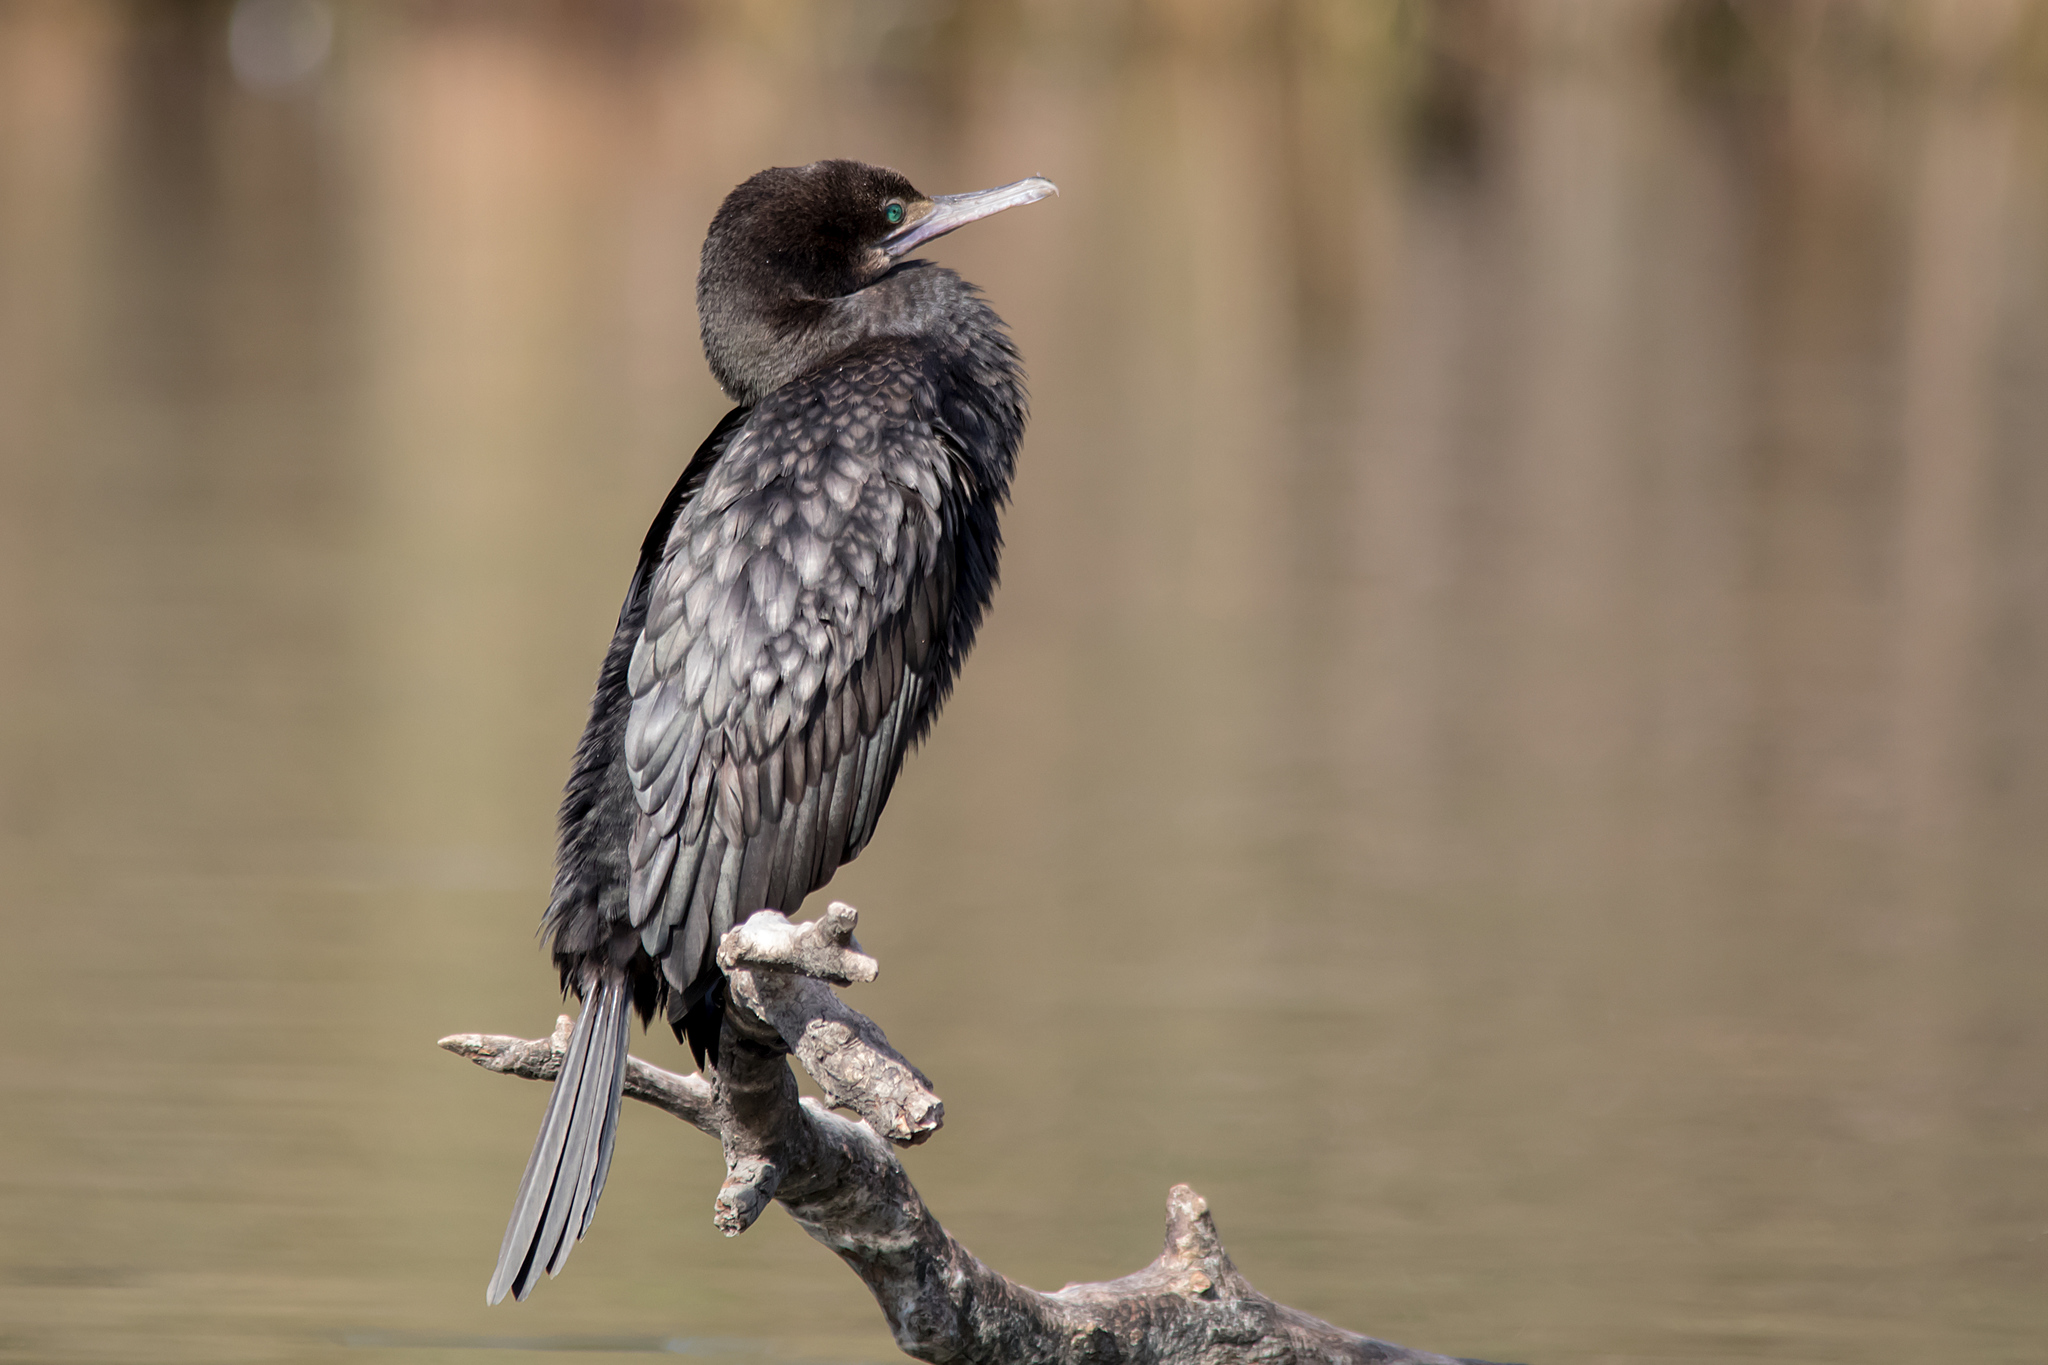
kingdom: Animalia
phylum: Chordata
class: Aves
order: Suliformes
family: Phalacrocoracidae
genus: Phalacrocorax
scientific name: Phalacrocorax sulcirostris
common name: Little black cormorant
